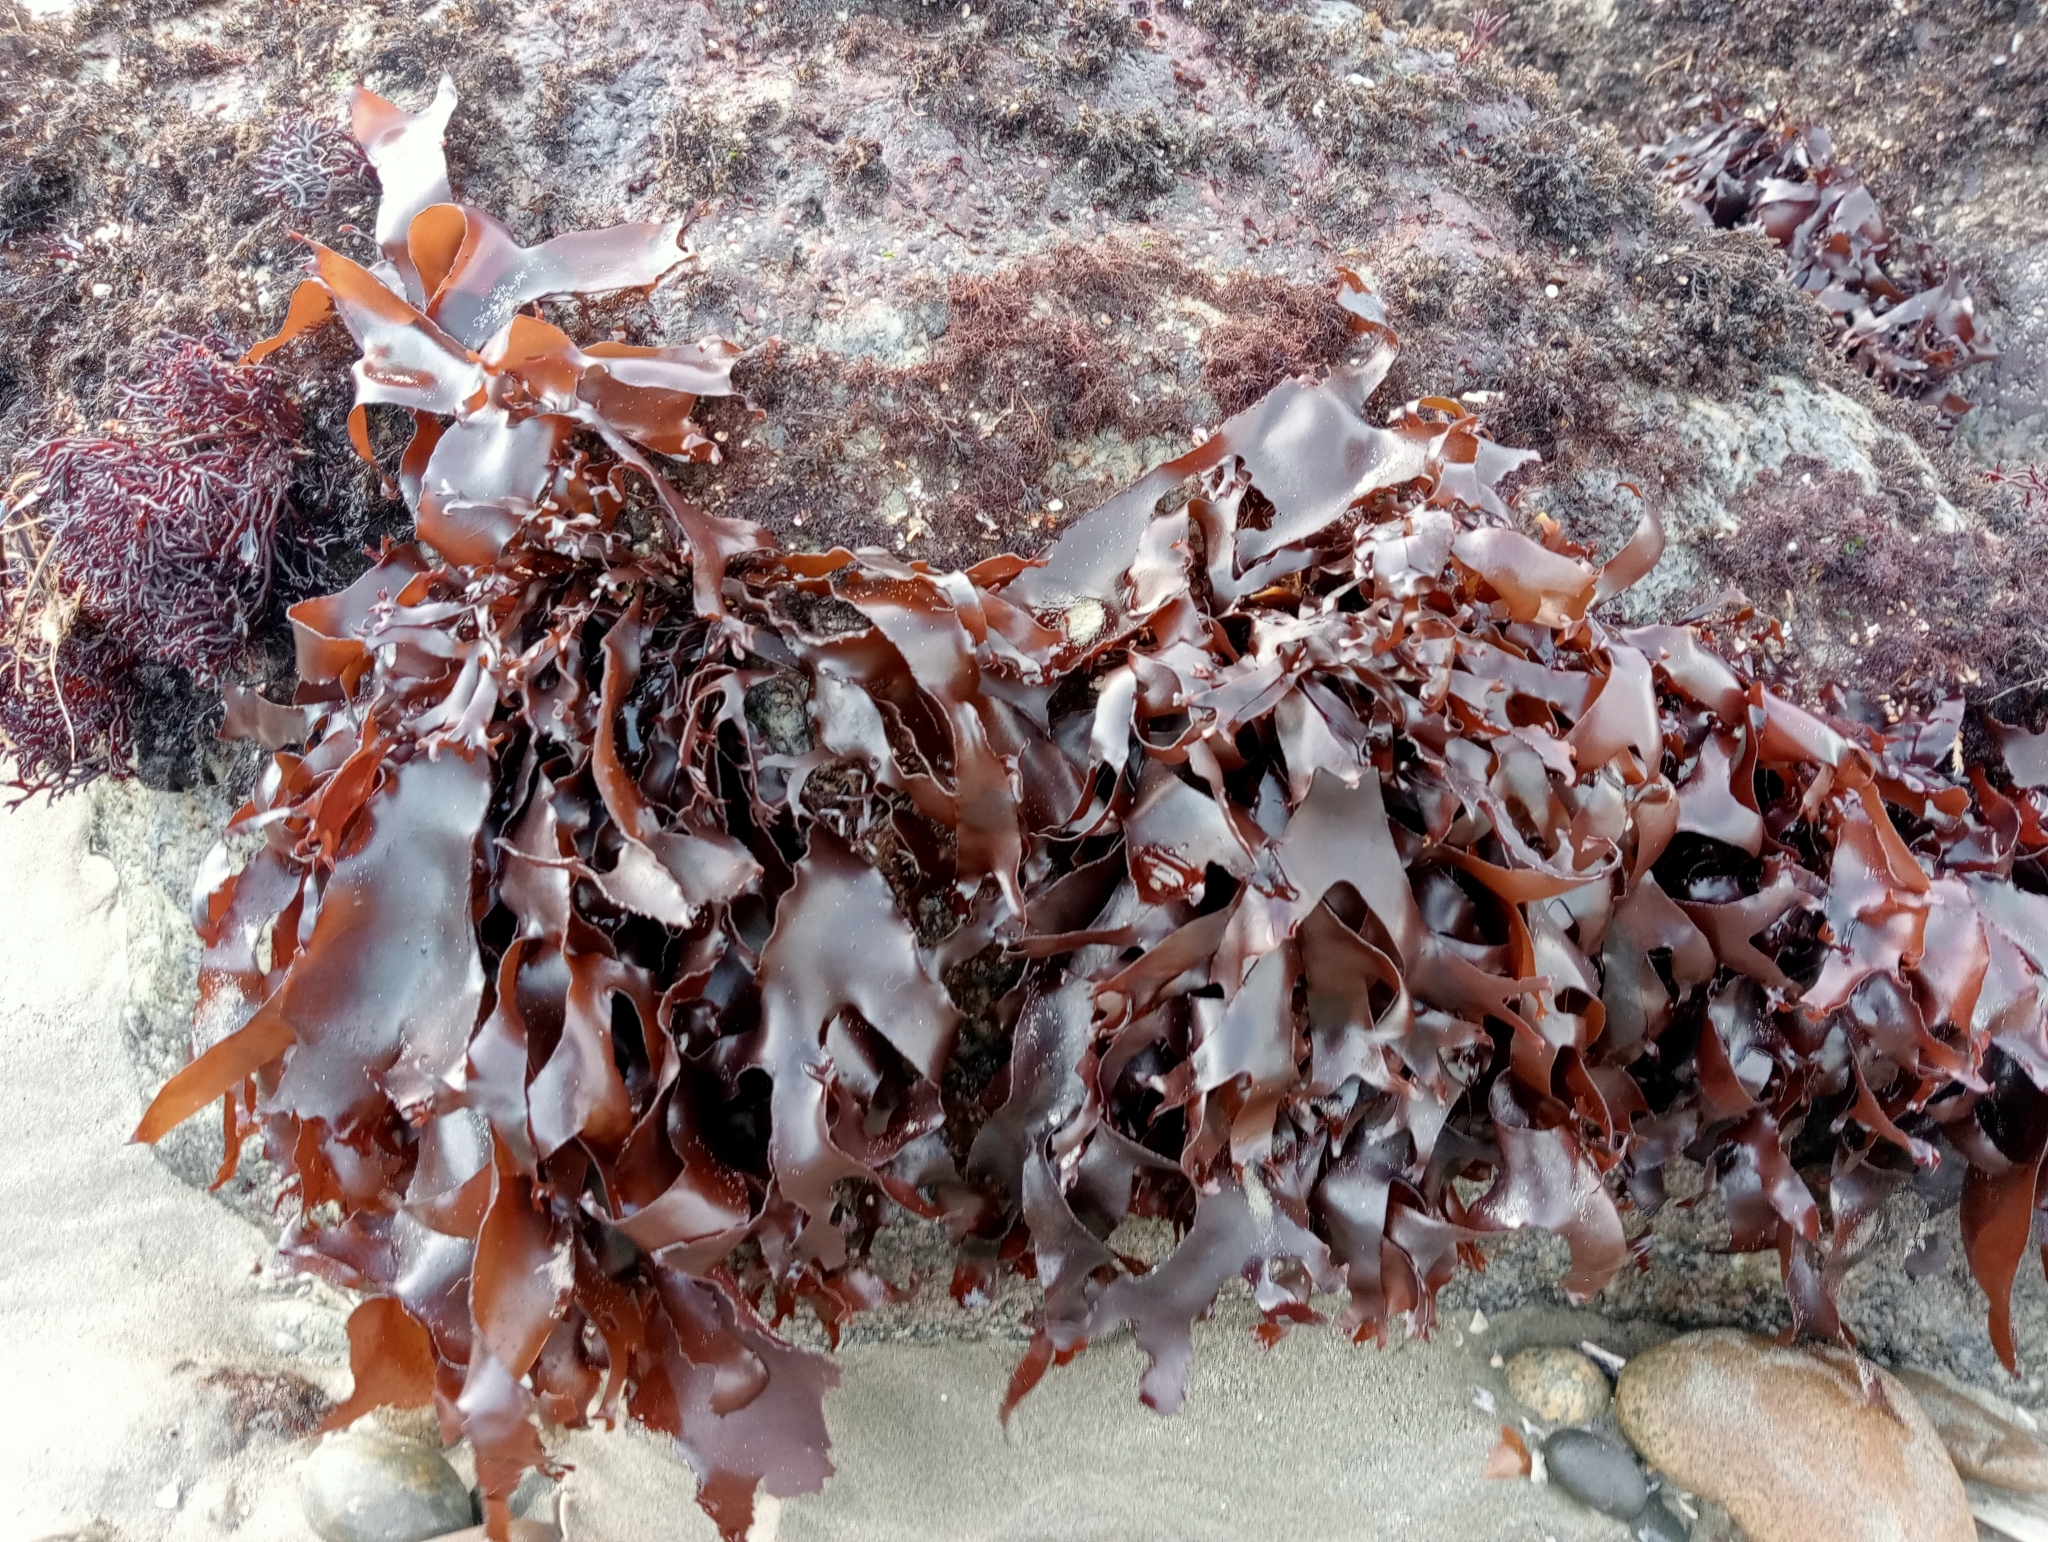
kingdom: Plantae
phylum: Rhodophyta
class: Florideophyceae
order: Halymeniales
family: Halymeniaceae
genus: Pachymenia
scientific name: Pachymenia dichotoma
